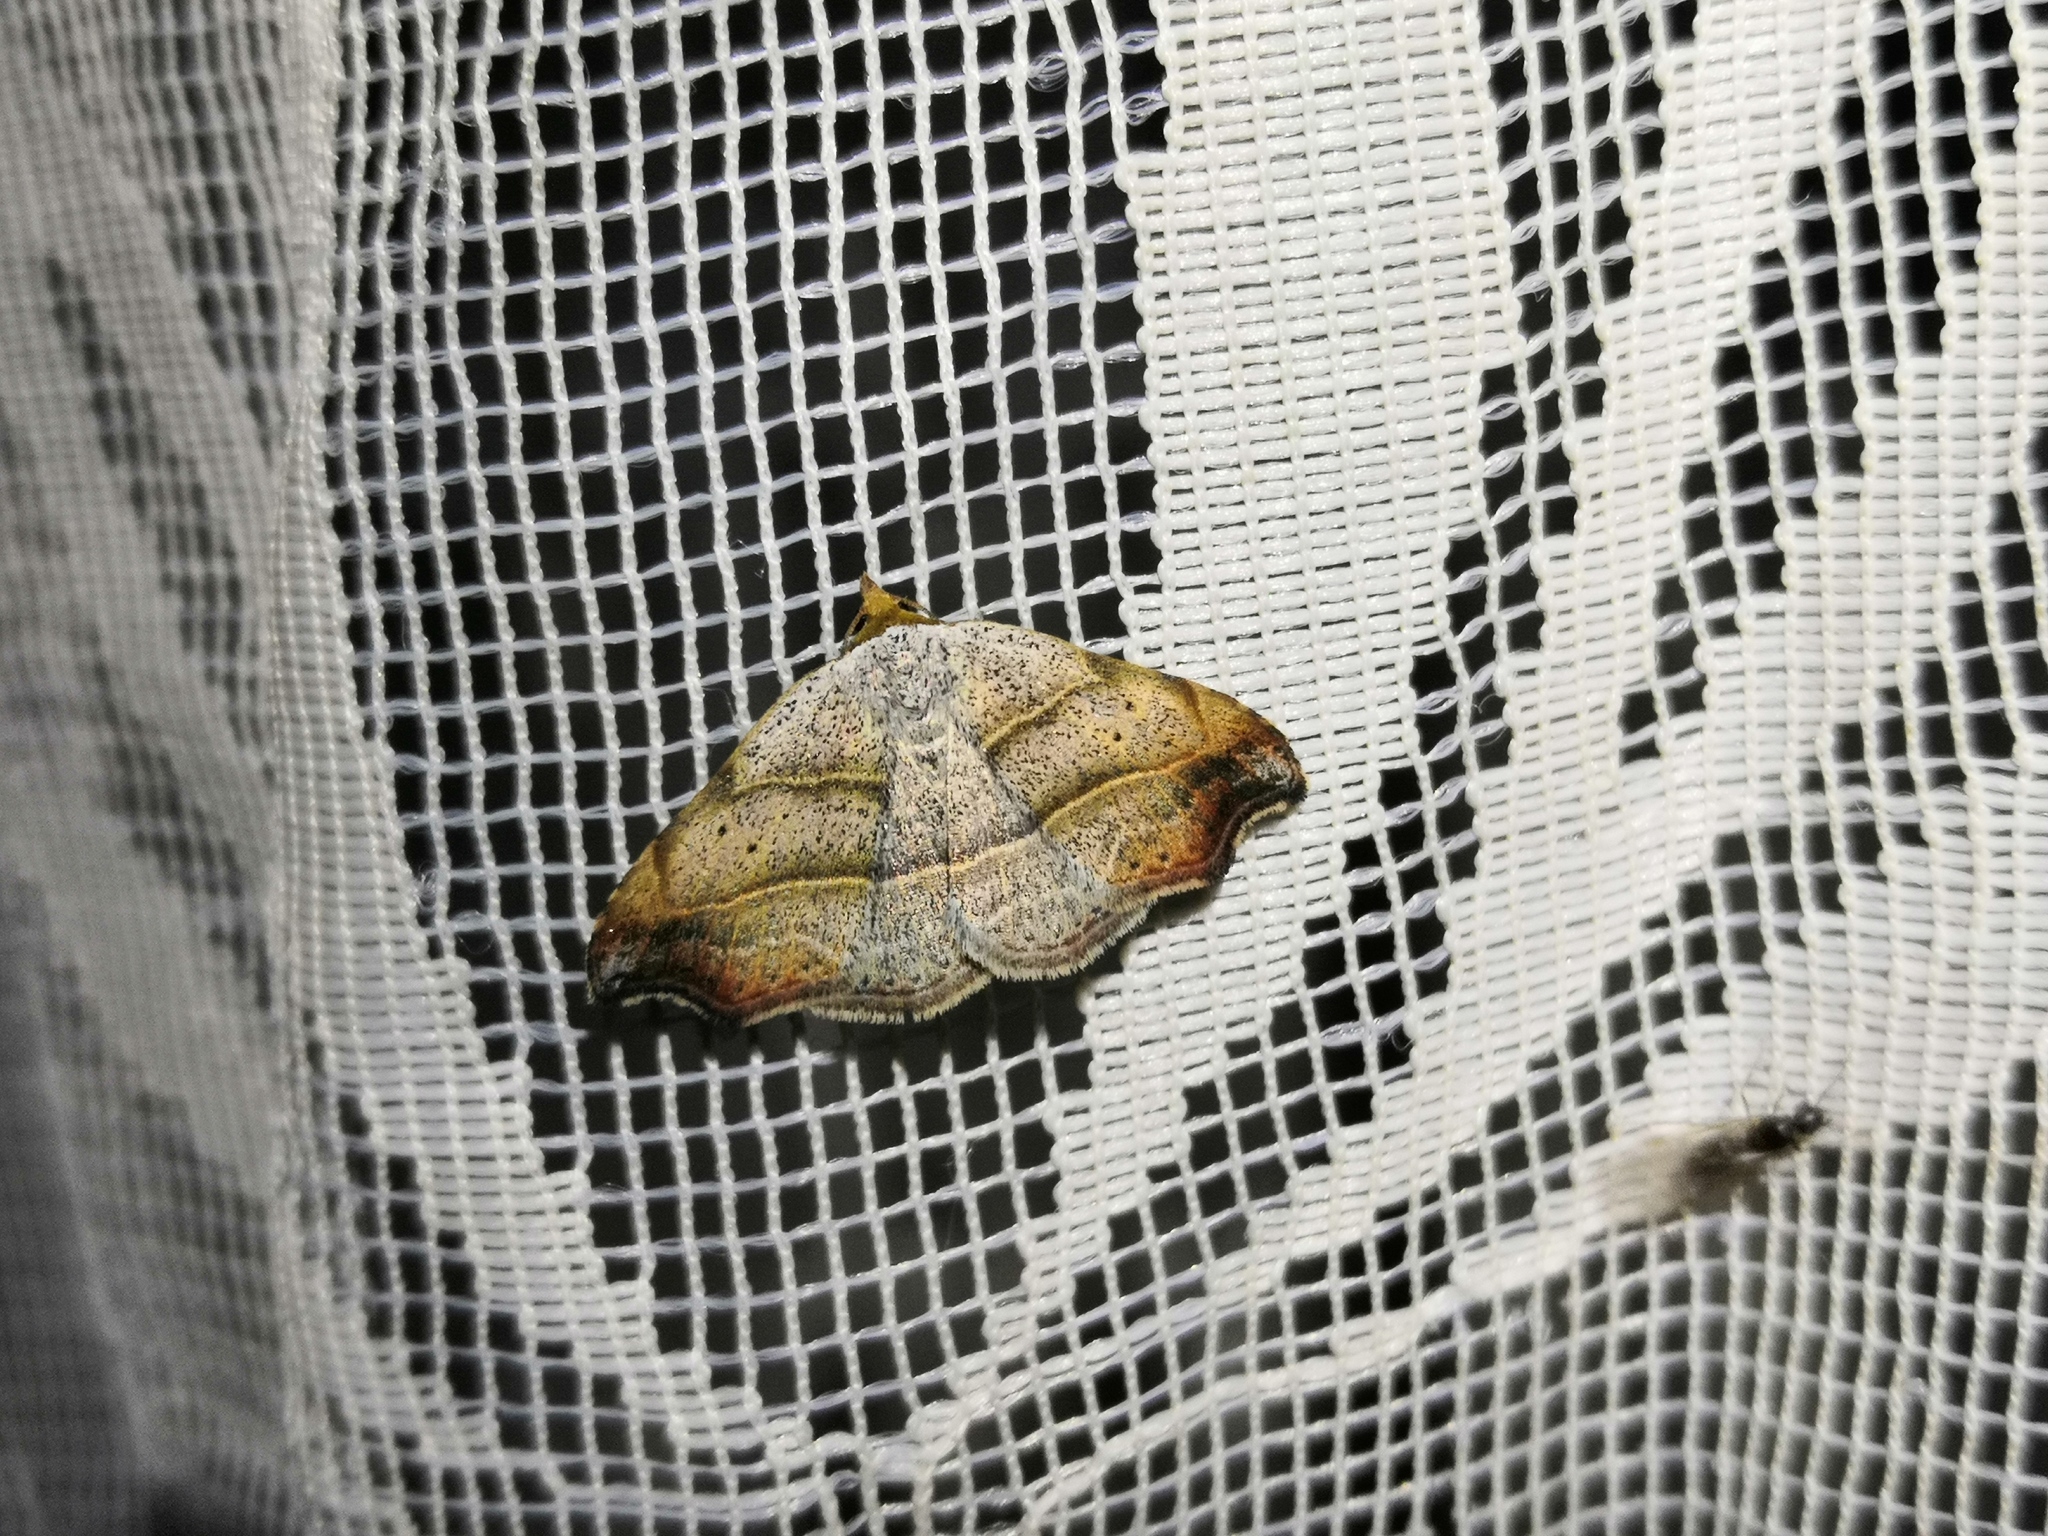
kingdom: Animalia
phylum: Arthropoda
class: Insecta
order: Lepidoptera
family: Erebidae
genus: Laspeyria
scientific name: Laspeyria flexula
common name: Beautiful hook-tip
